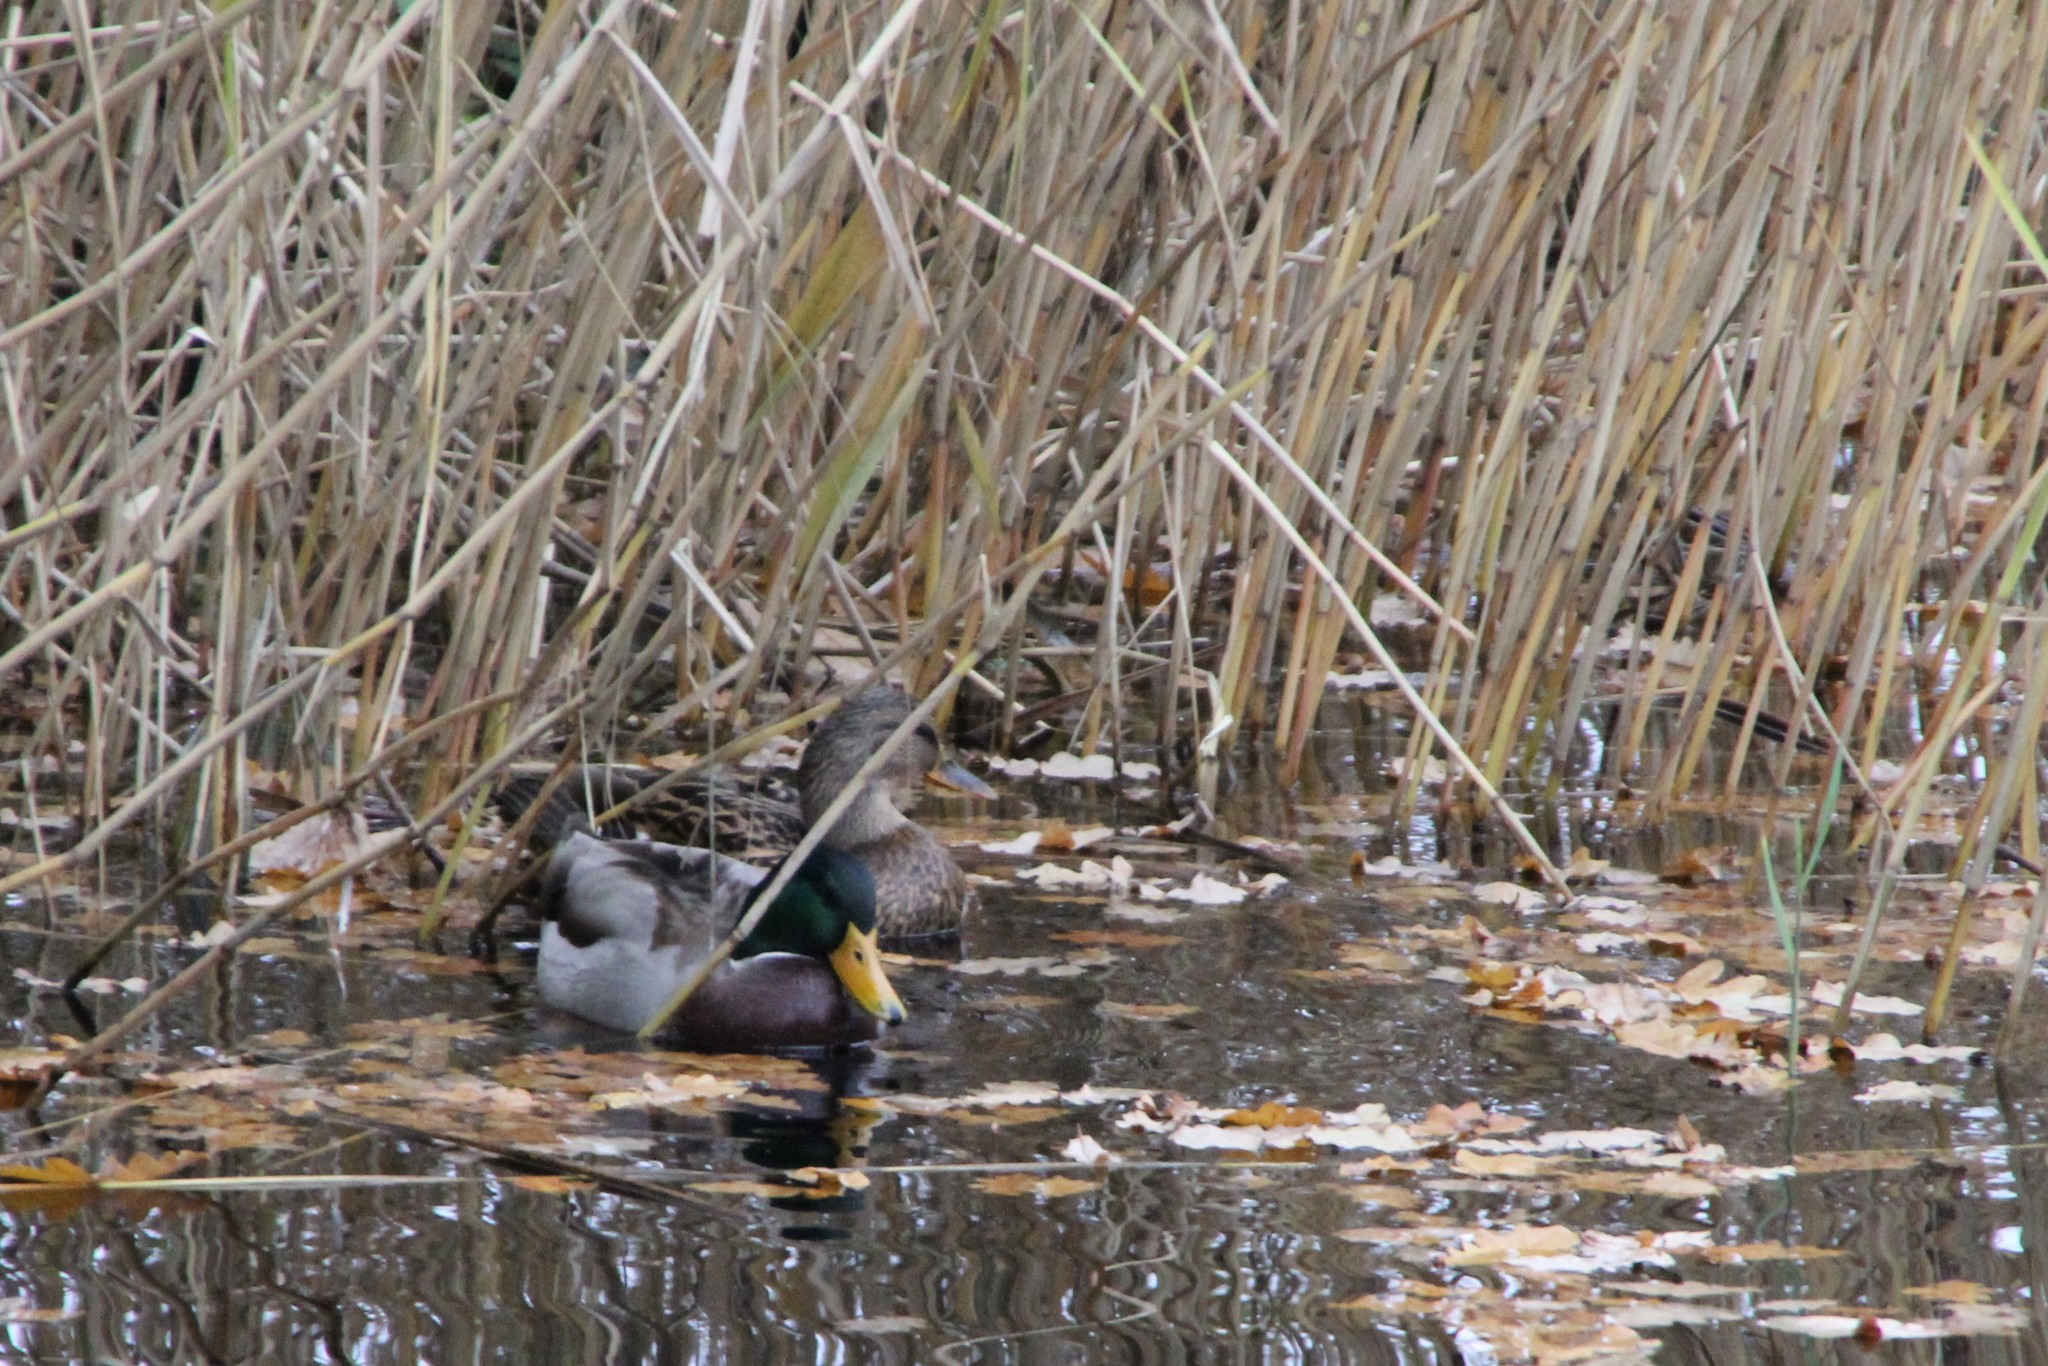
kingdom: Animalia
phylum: Chordata
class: Aves
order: Anseriformes
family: Anatidae
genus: Anas
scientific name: Anas platyrhynchos
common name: Mallard
